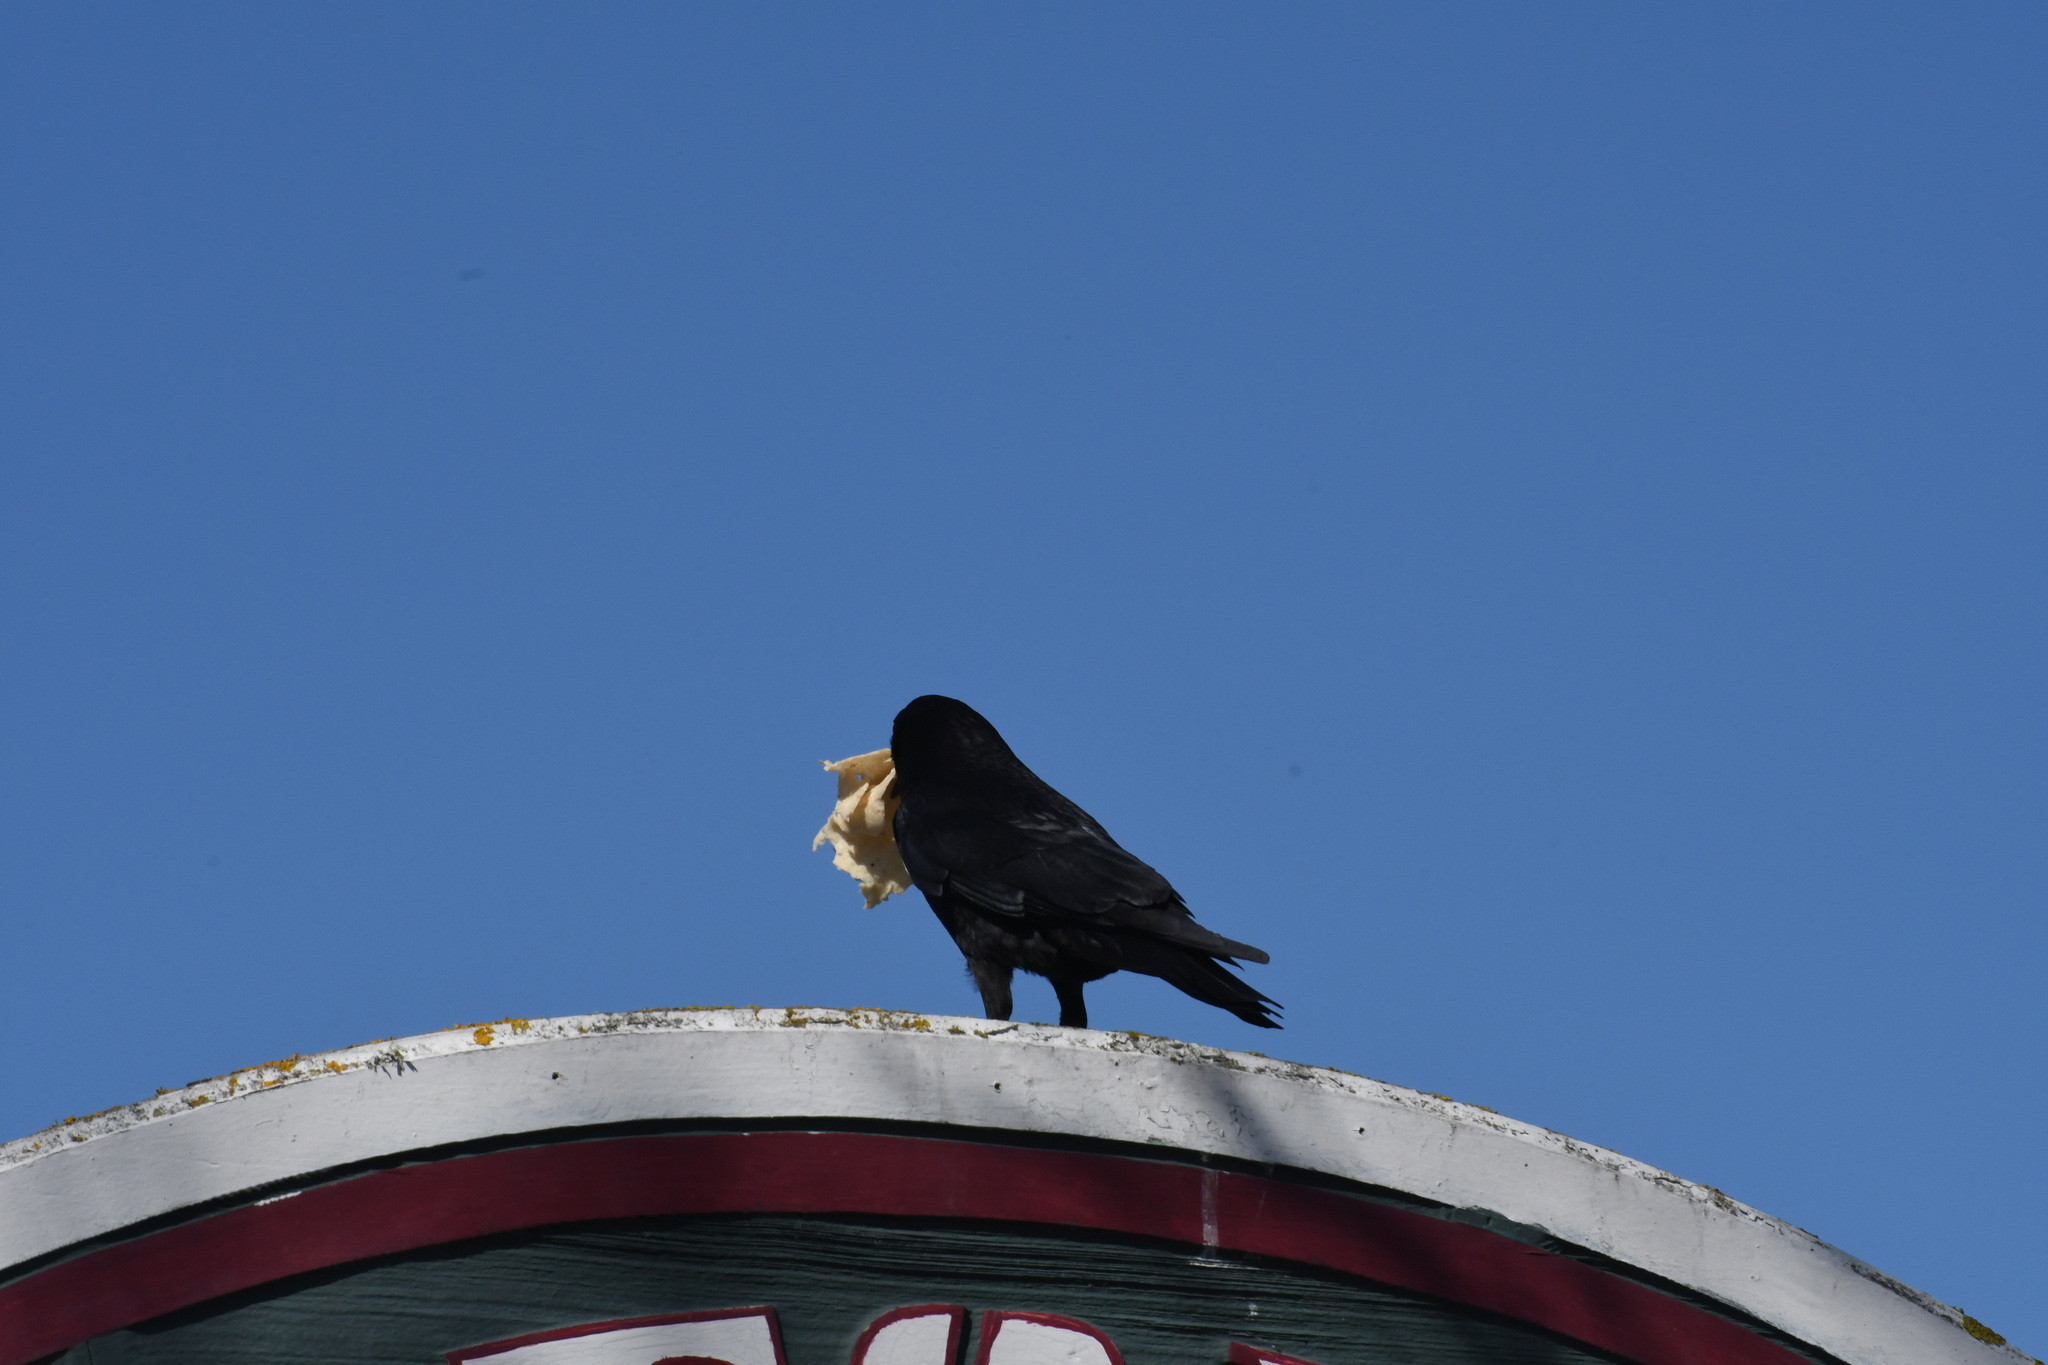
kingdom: Animalia
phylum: Chordata
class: Aves
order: Passeriformes
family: Corvidae
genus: Corvus
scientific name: Corvus brachyrhynchos
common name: American crow
